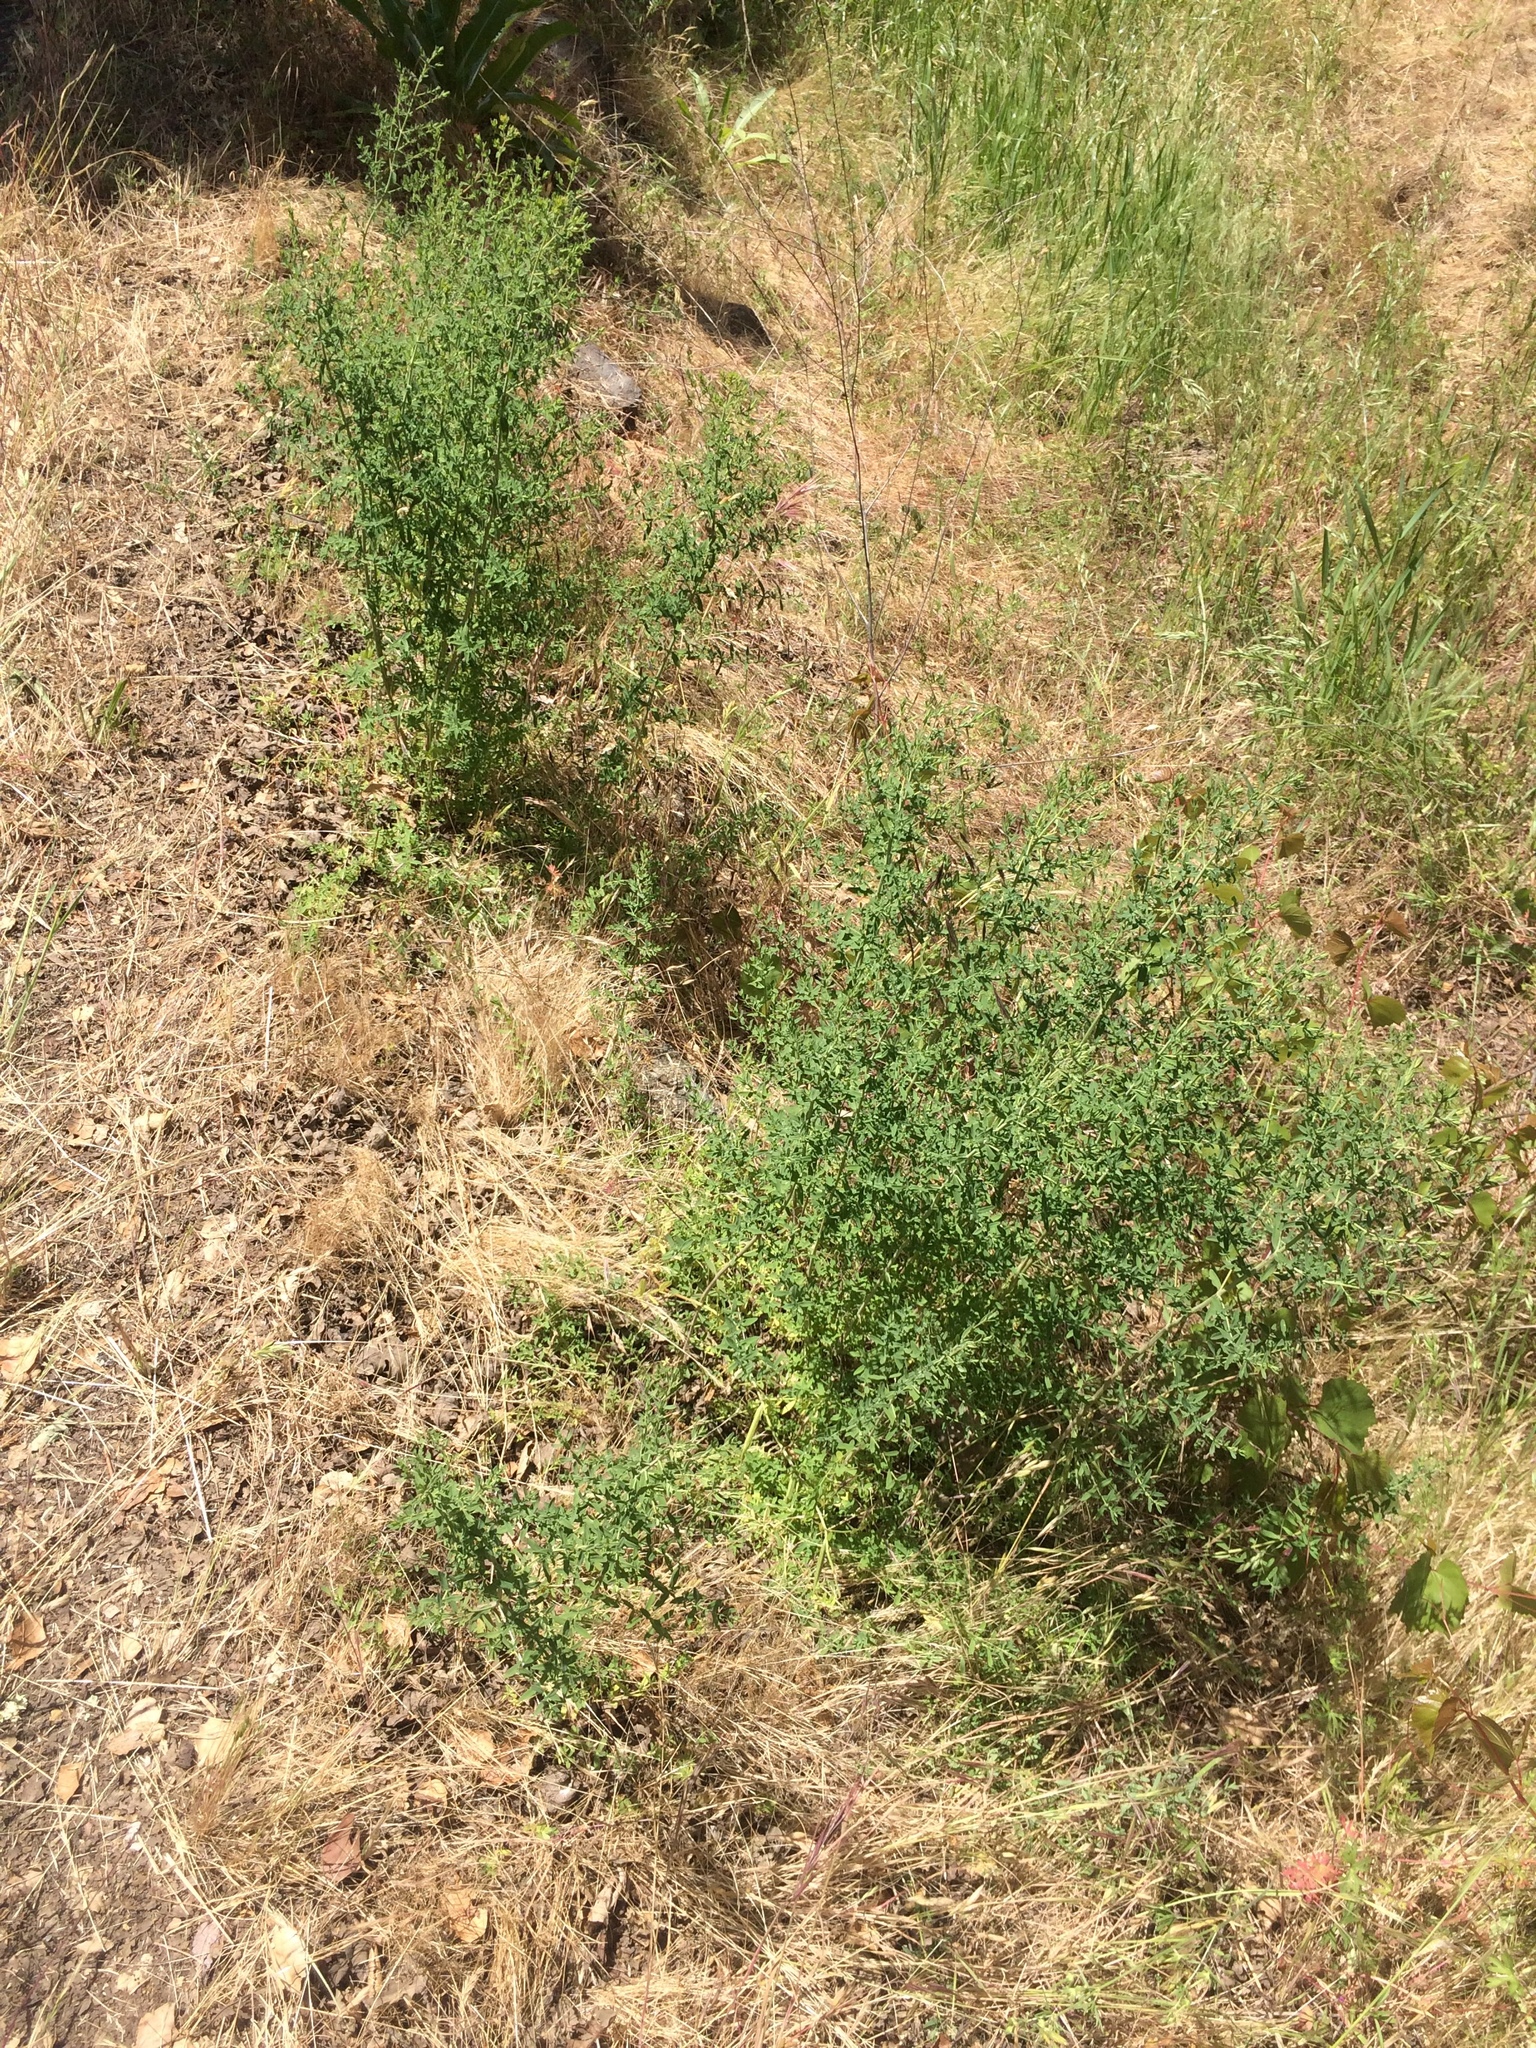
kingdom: Plantae
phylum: Tracheophyta
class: Magnoliopsida
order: Malpighiales
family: Hypericaceae
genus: Hypericum
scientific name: Hypericum perforatum
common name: Common st. johnswort
